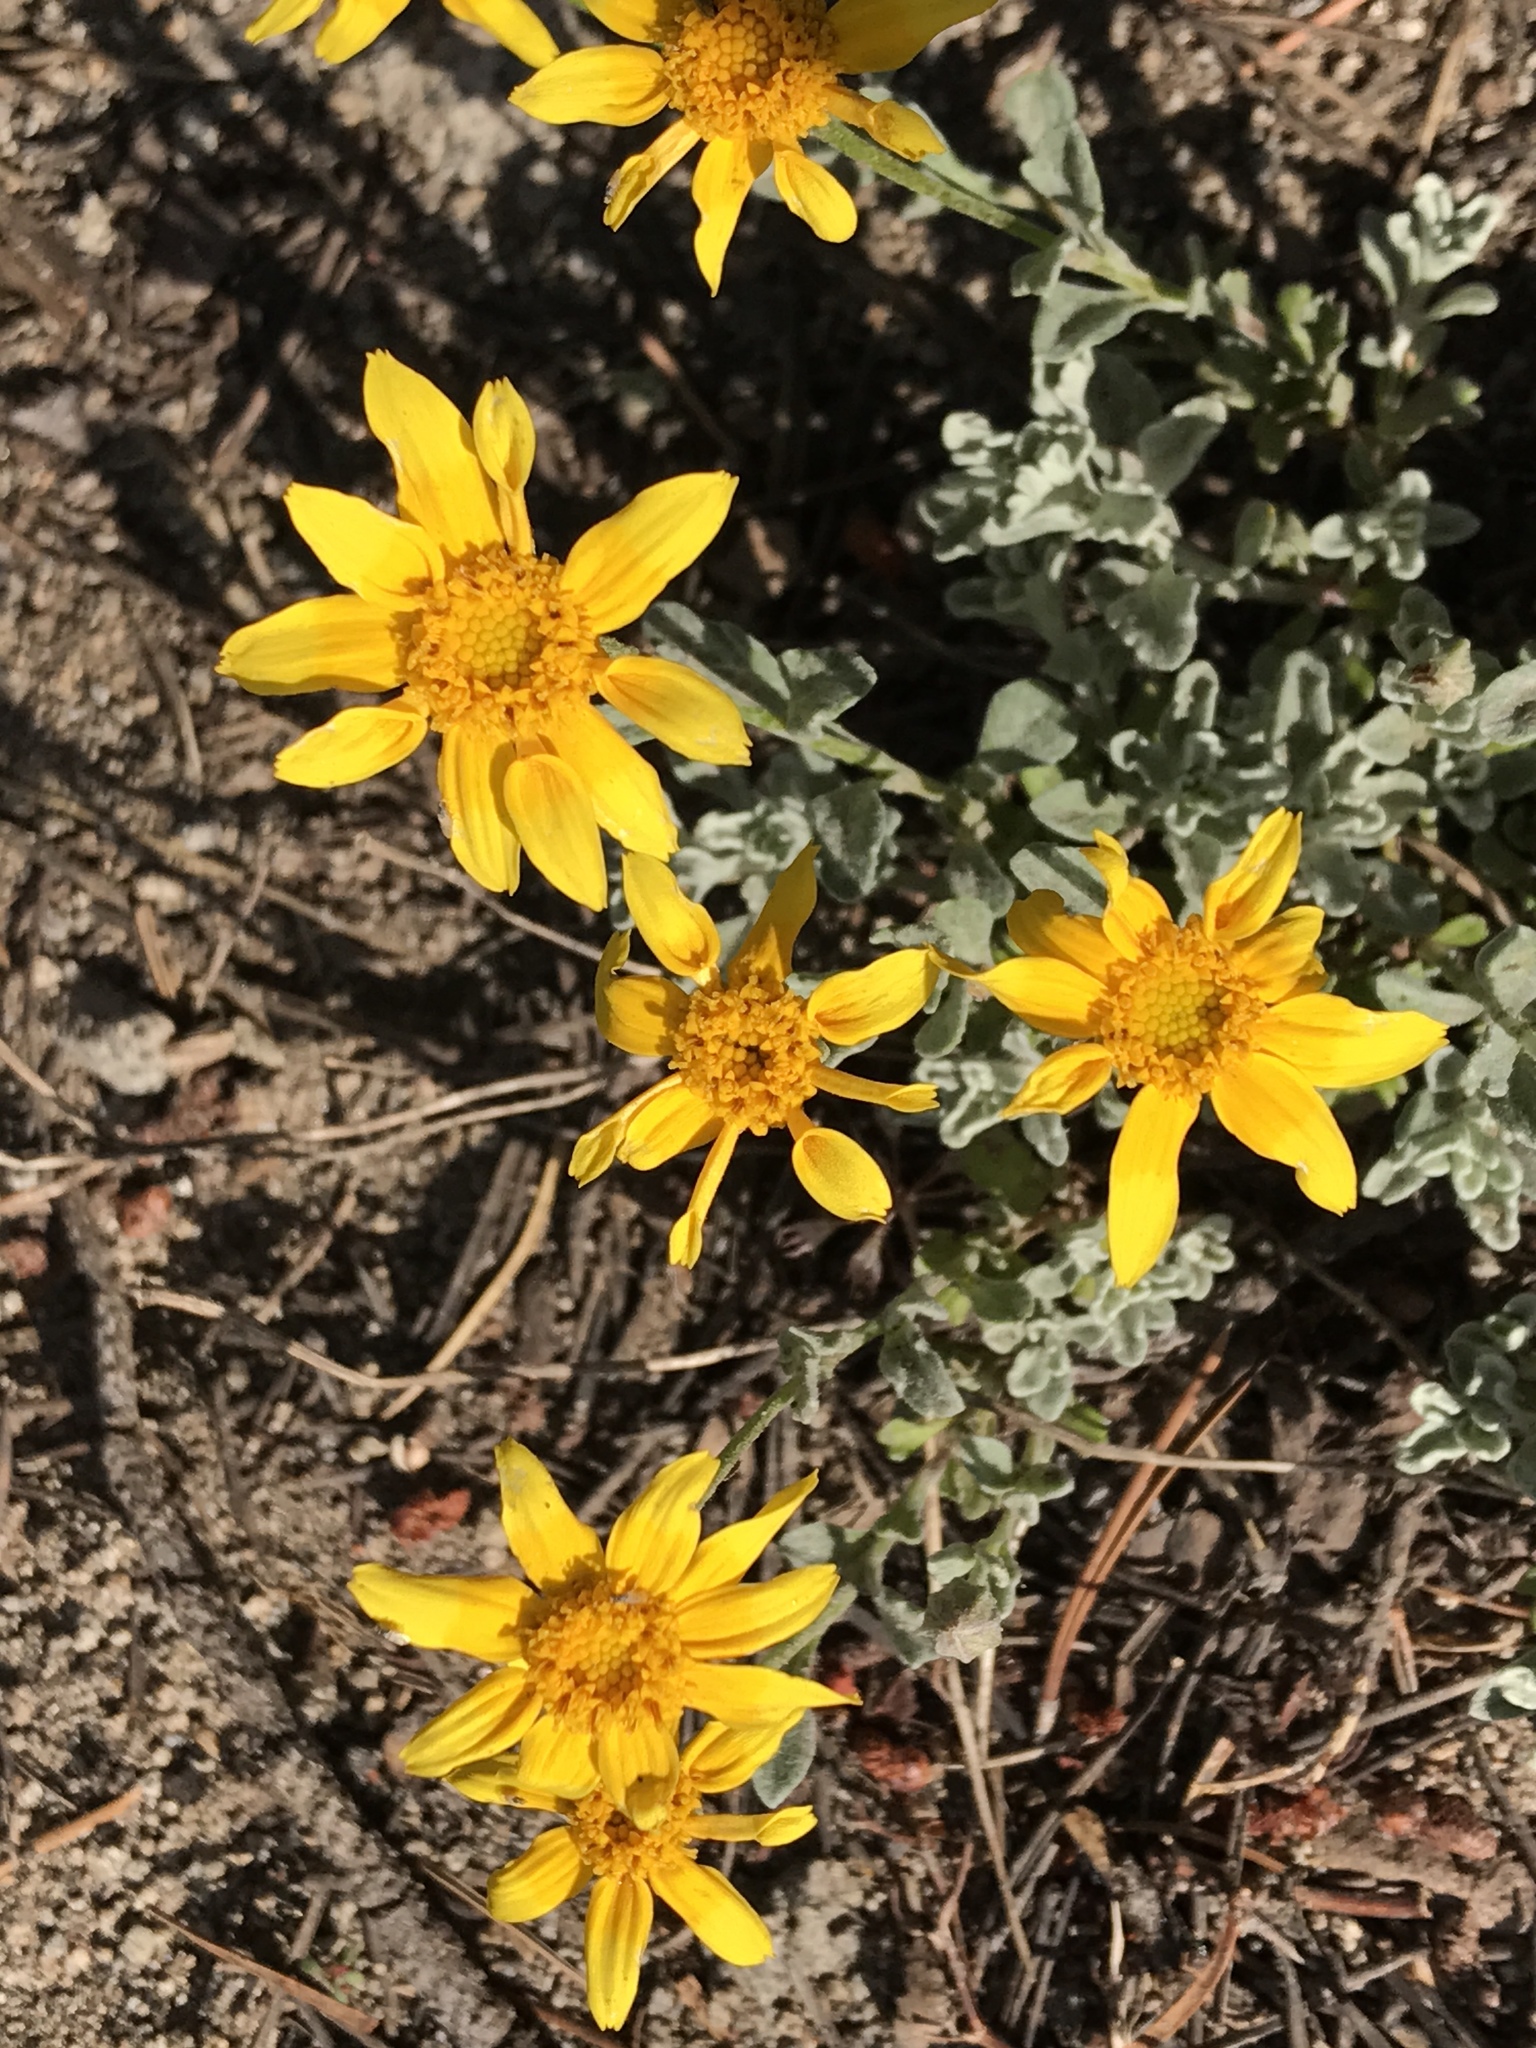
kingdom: Plantae
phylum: Tracheophyta
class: Magnoliopsida
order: Asterales
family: Asteraceae
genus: Eriophyllum
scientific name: Eriophyllum lanatum
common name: Common woolly-sunflower
